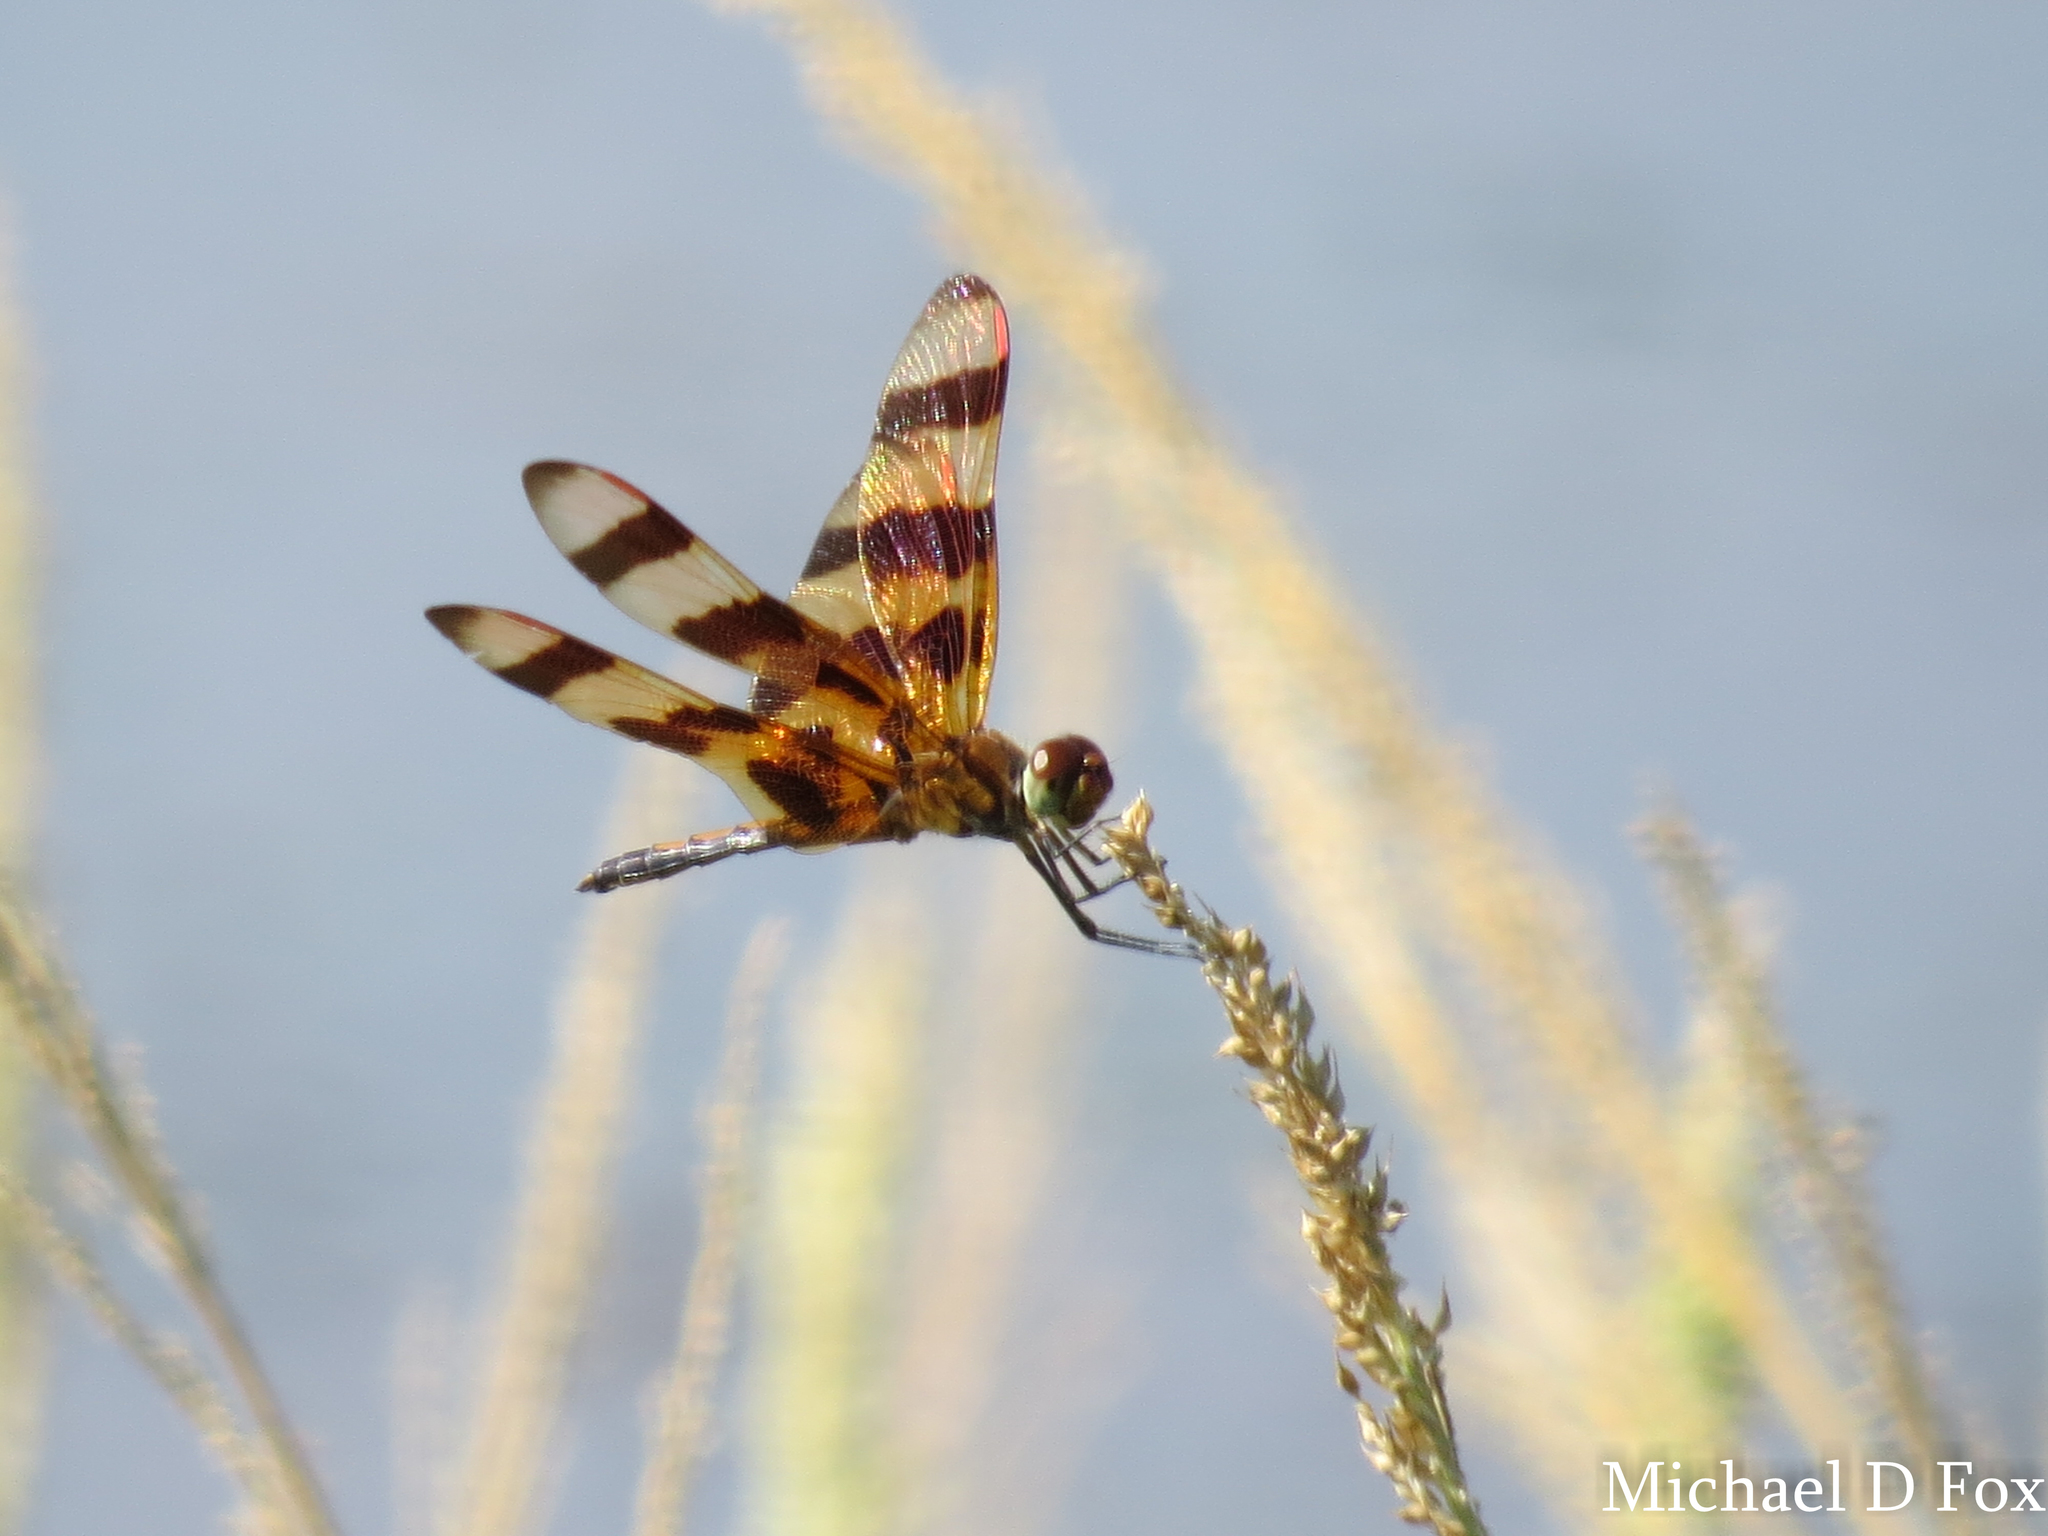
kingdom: Animalia
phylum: Arthropoda
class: Insecta
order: Odonata
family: Libellulidae
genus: Celithemis
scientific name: Celithemis eponina
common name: Halloween pennant
